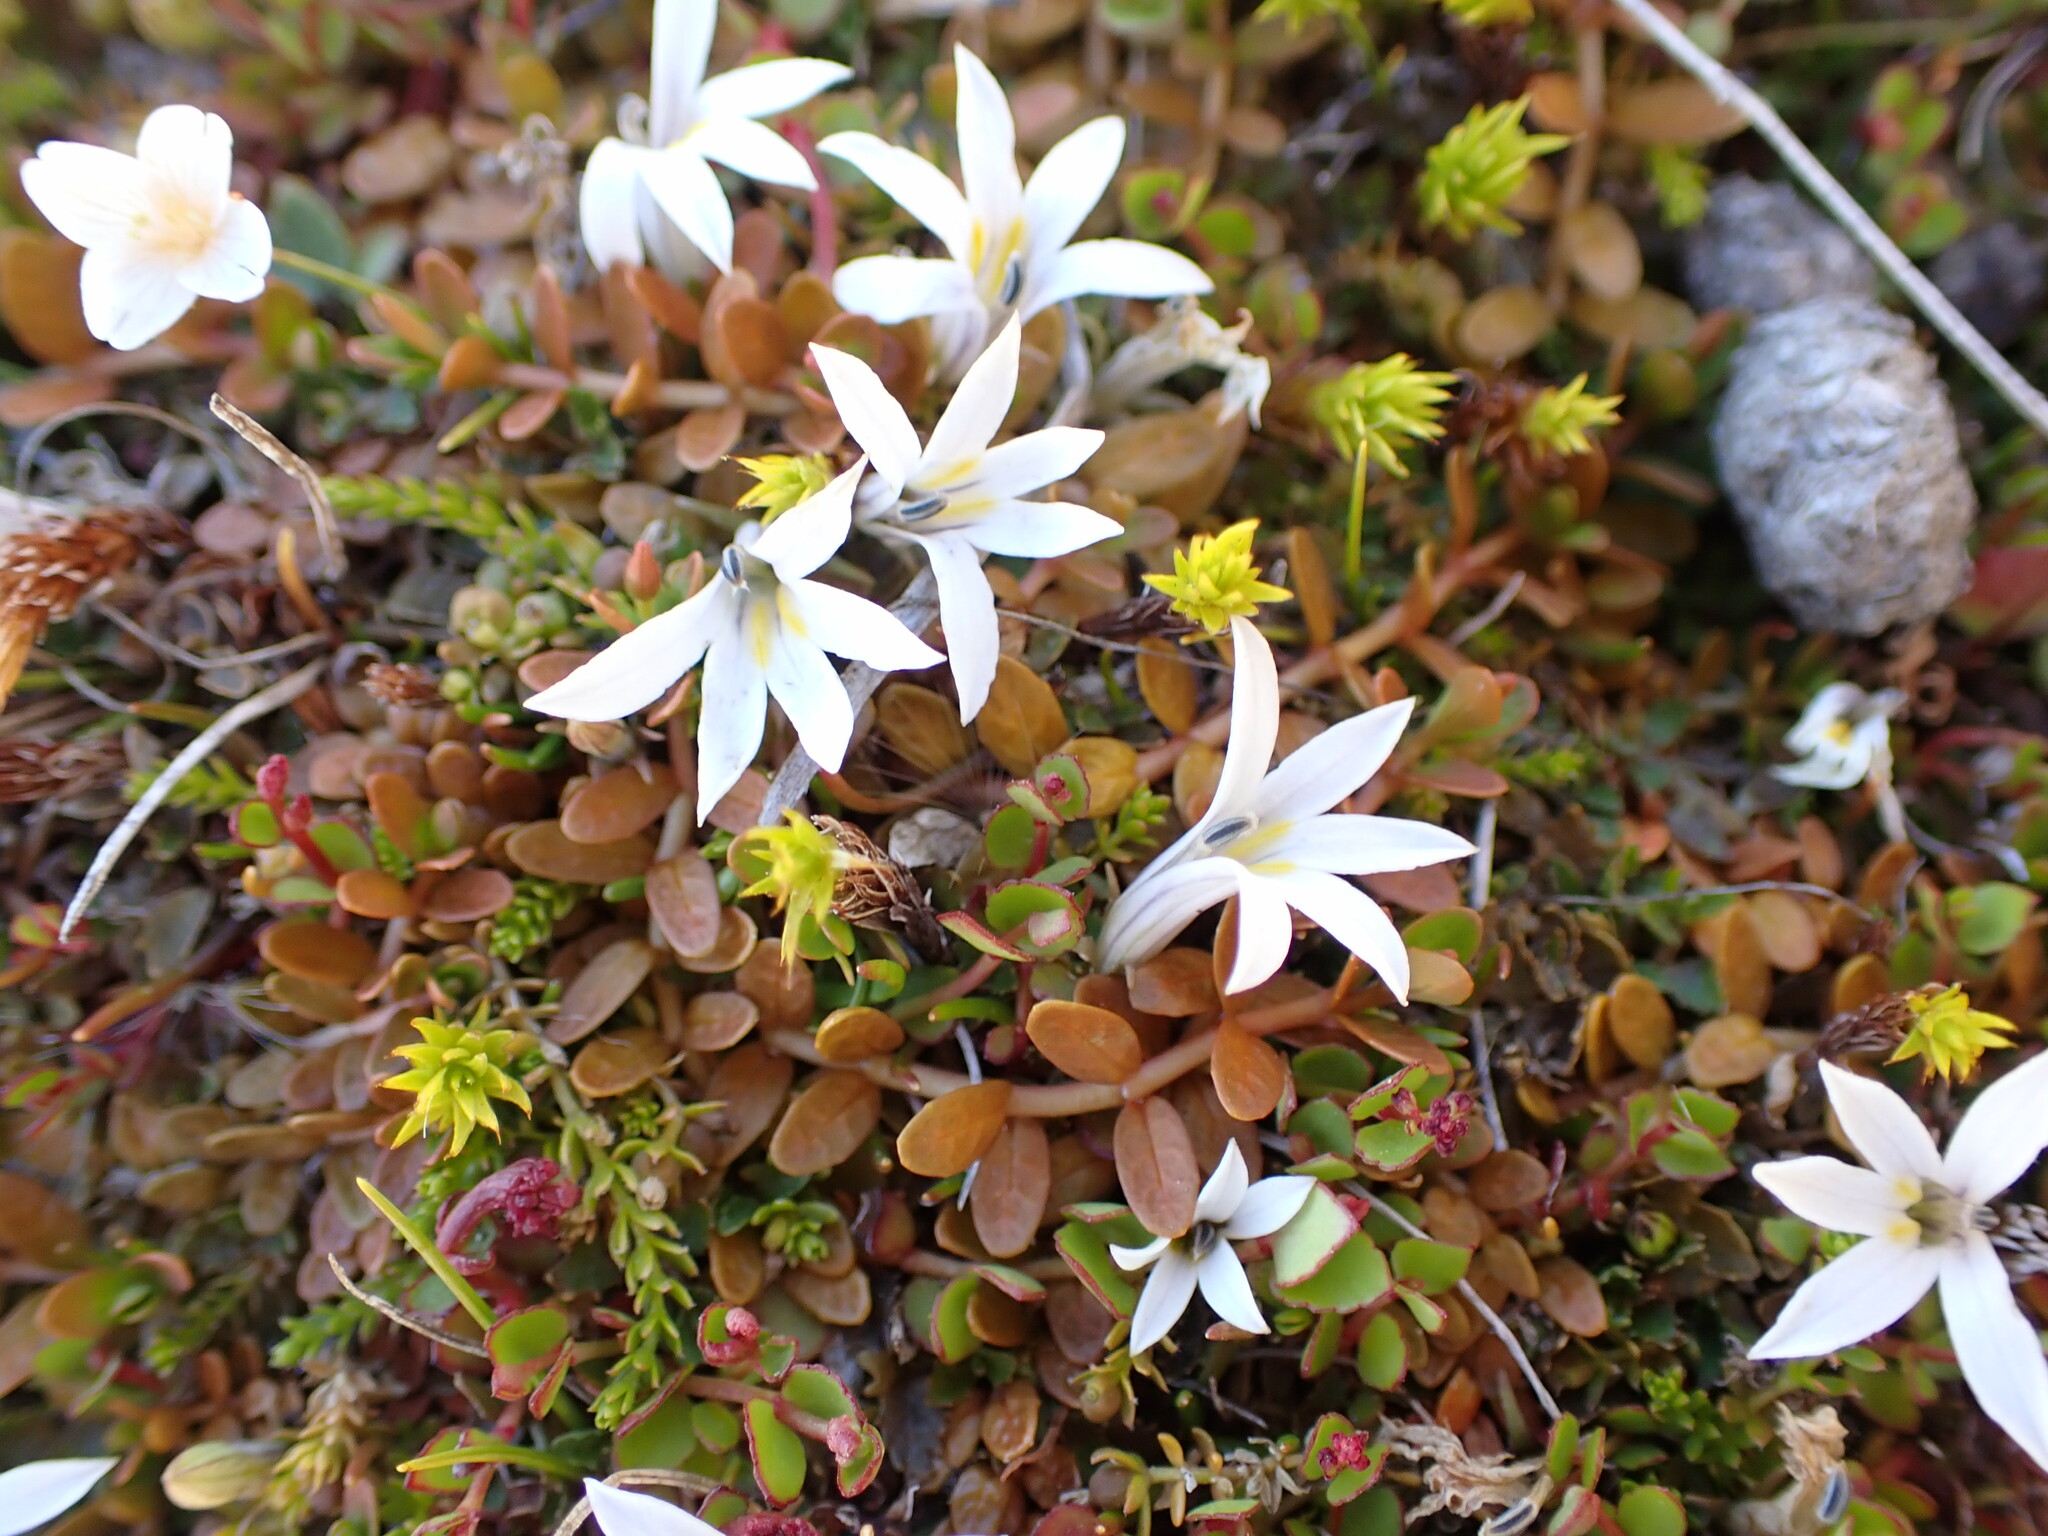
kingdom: Plantae
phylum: Tracheophyta
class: Magnoliopsida
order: Asterales
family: Campanulaceae
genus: Lobelia
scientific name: Lobelia perpusilla
